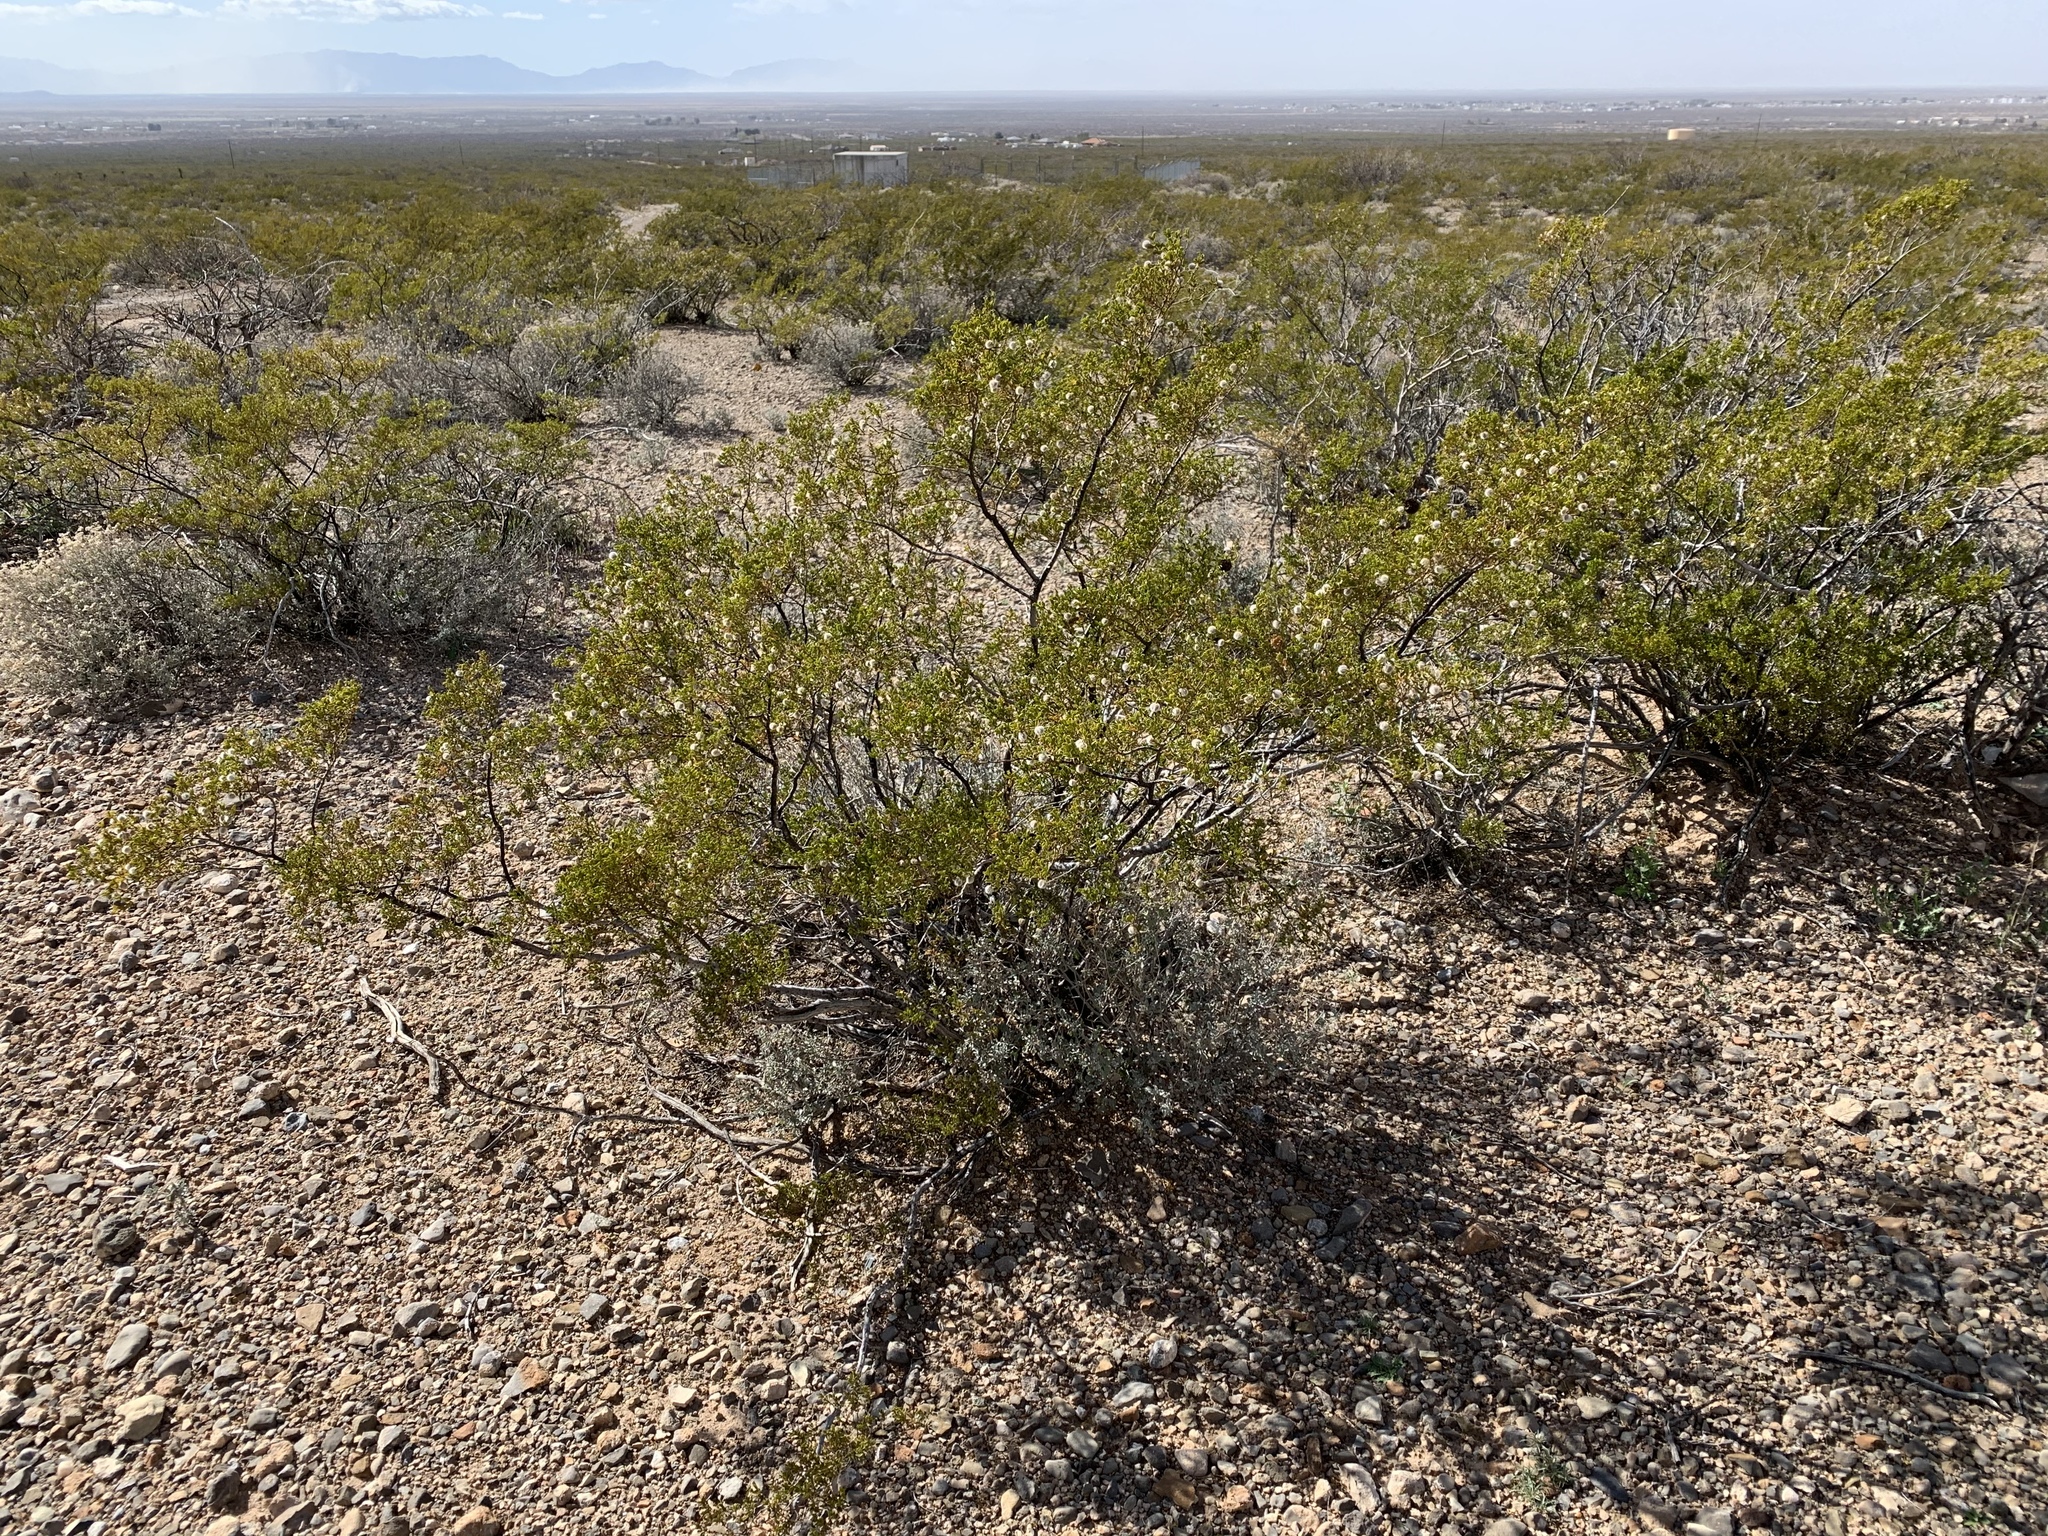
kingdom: Plantae
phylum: Tracheophyta
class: Magnoliopsida
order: Zygophyllales
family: Zygophyllaceae
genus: Larrea
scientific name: Larrea tridentata
